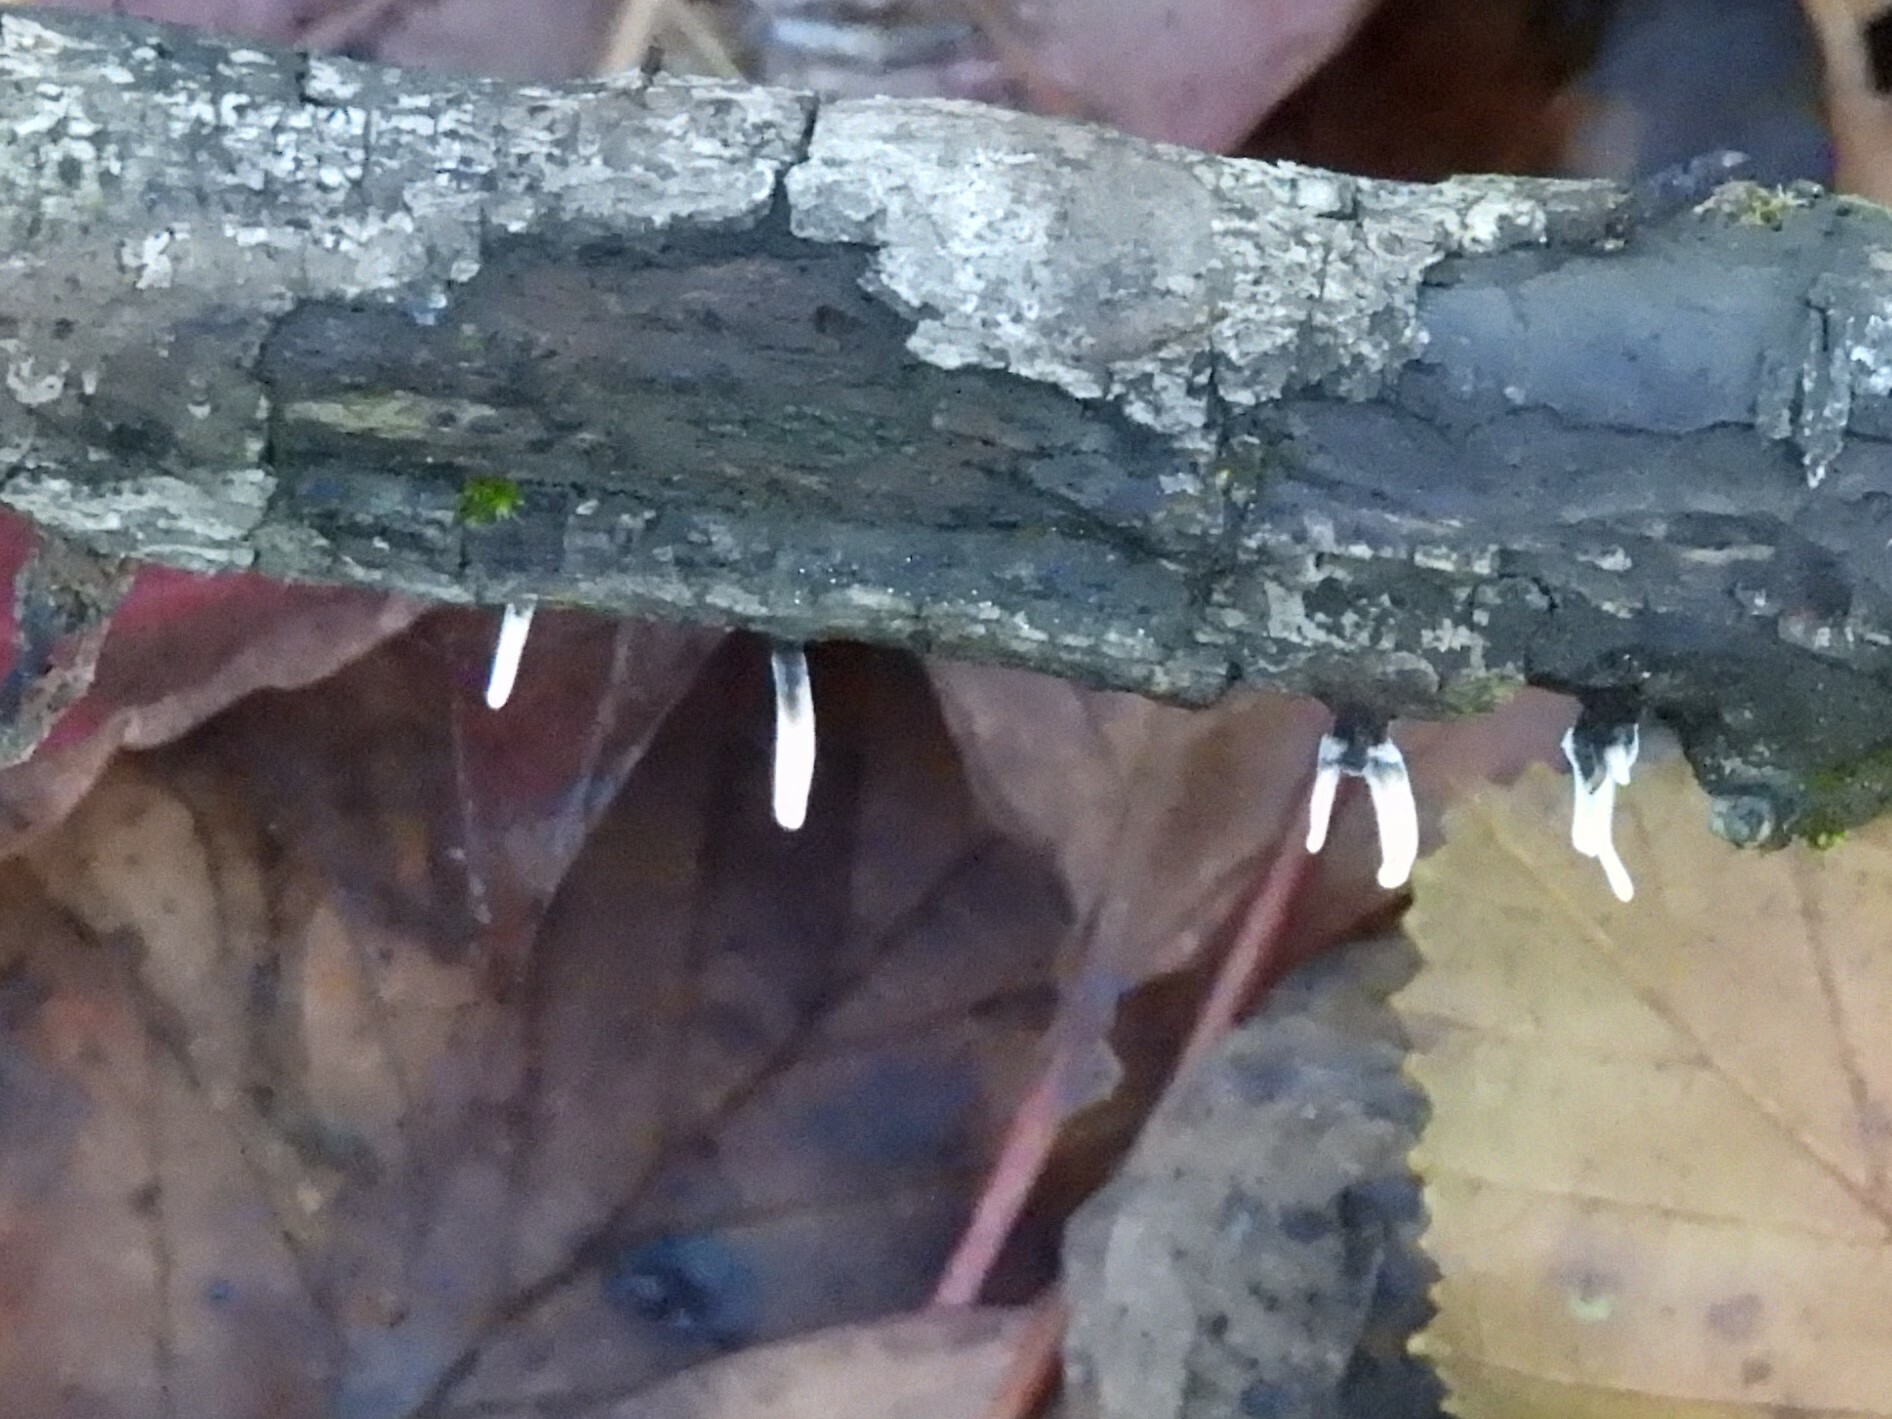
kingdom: Fungi
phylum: Ascomycota
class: Sordariomycetes
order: Xylariales
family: Xylariaceae
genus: Xylaria
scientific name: Xylaria hypoxylon
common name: Candle-snuff fungus
